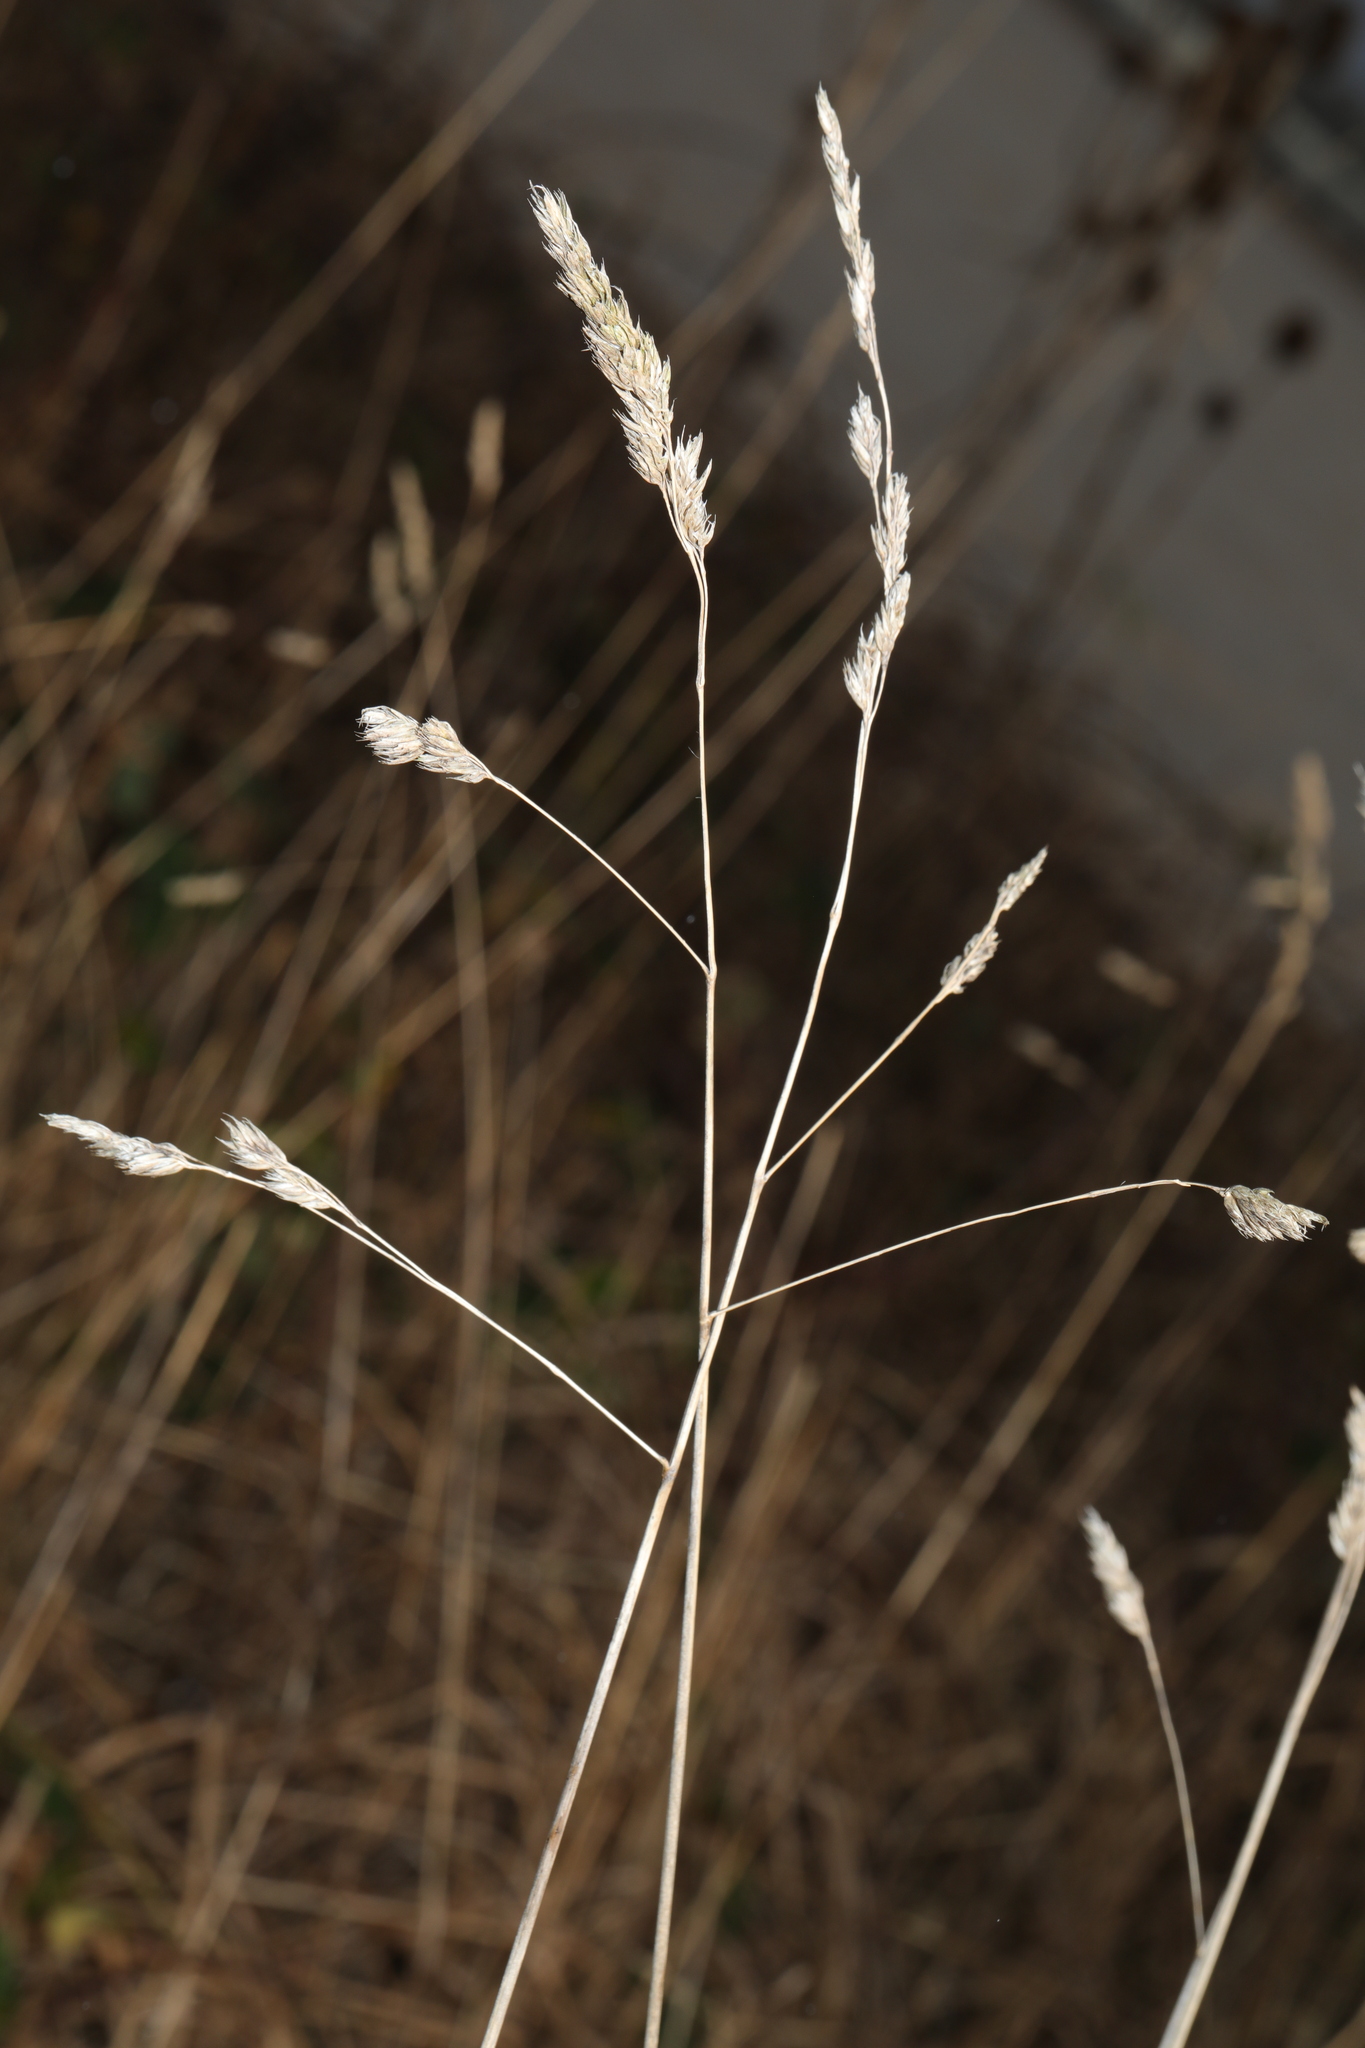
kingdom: Plantae
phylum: Tracheophyta
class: Liliopsida
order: Poales
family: Poaceae
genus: Dactylis
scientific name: Dactylis glomerata
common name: Orchardgrass
